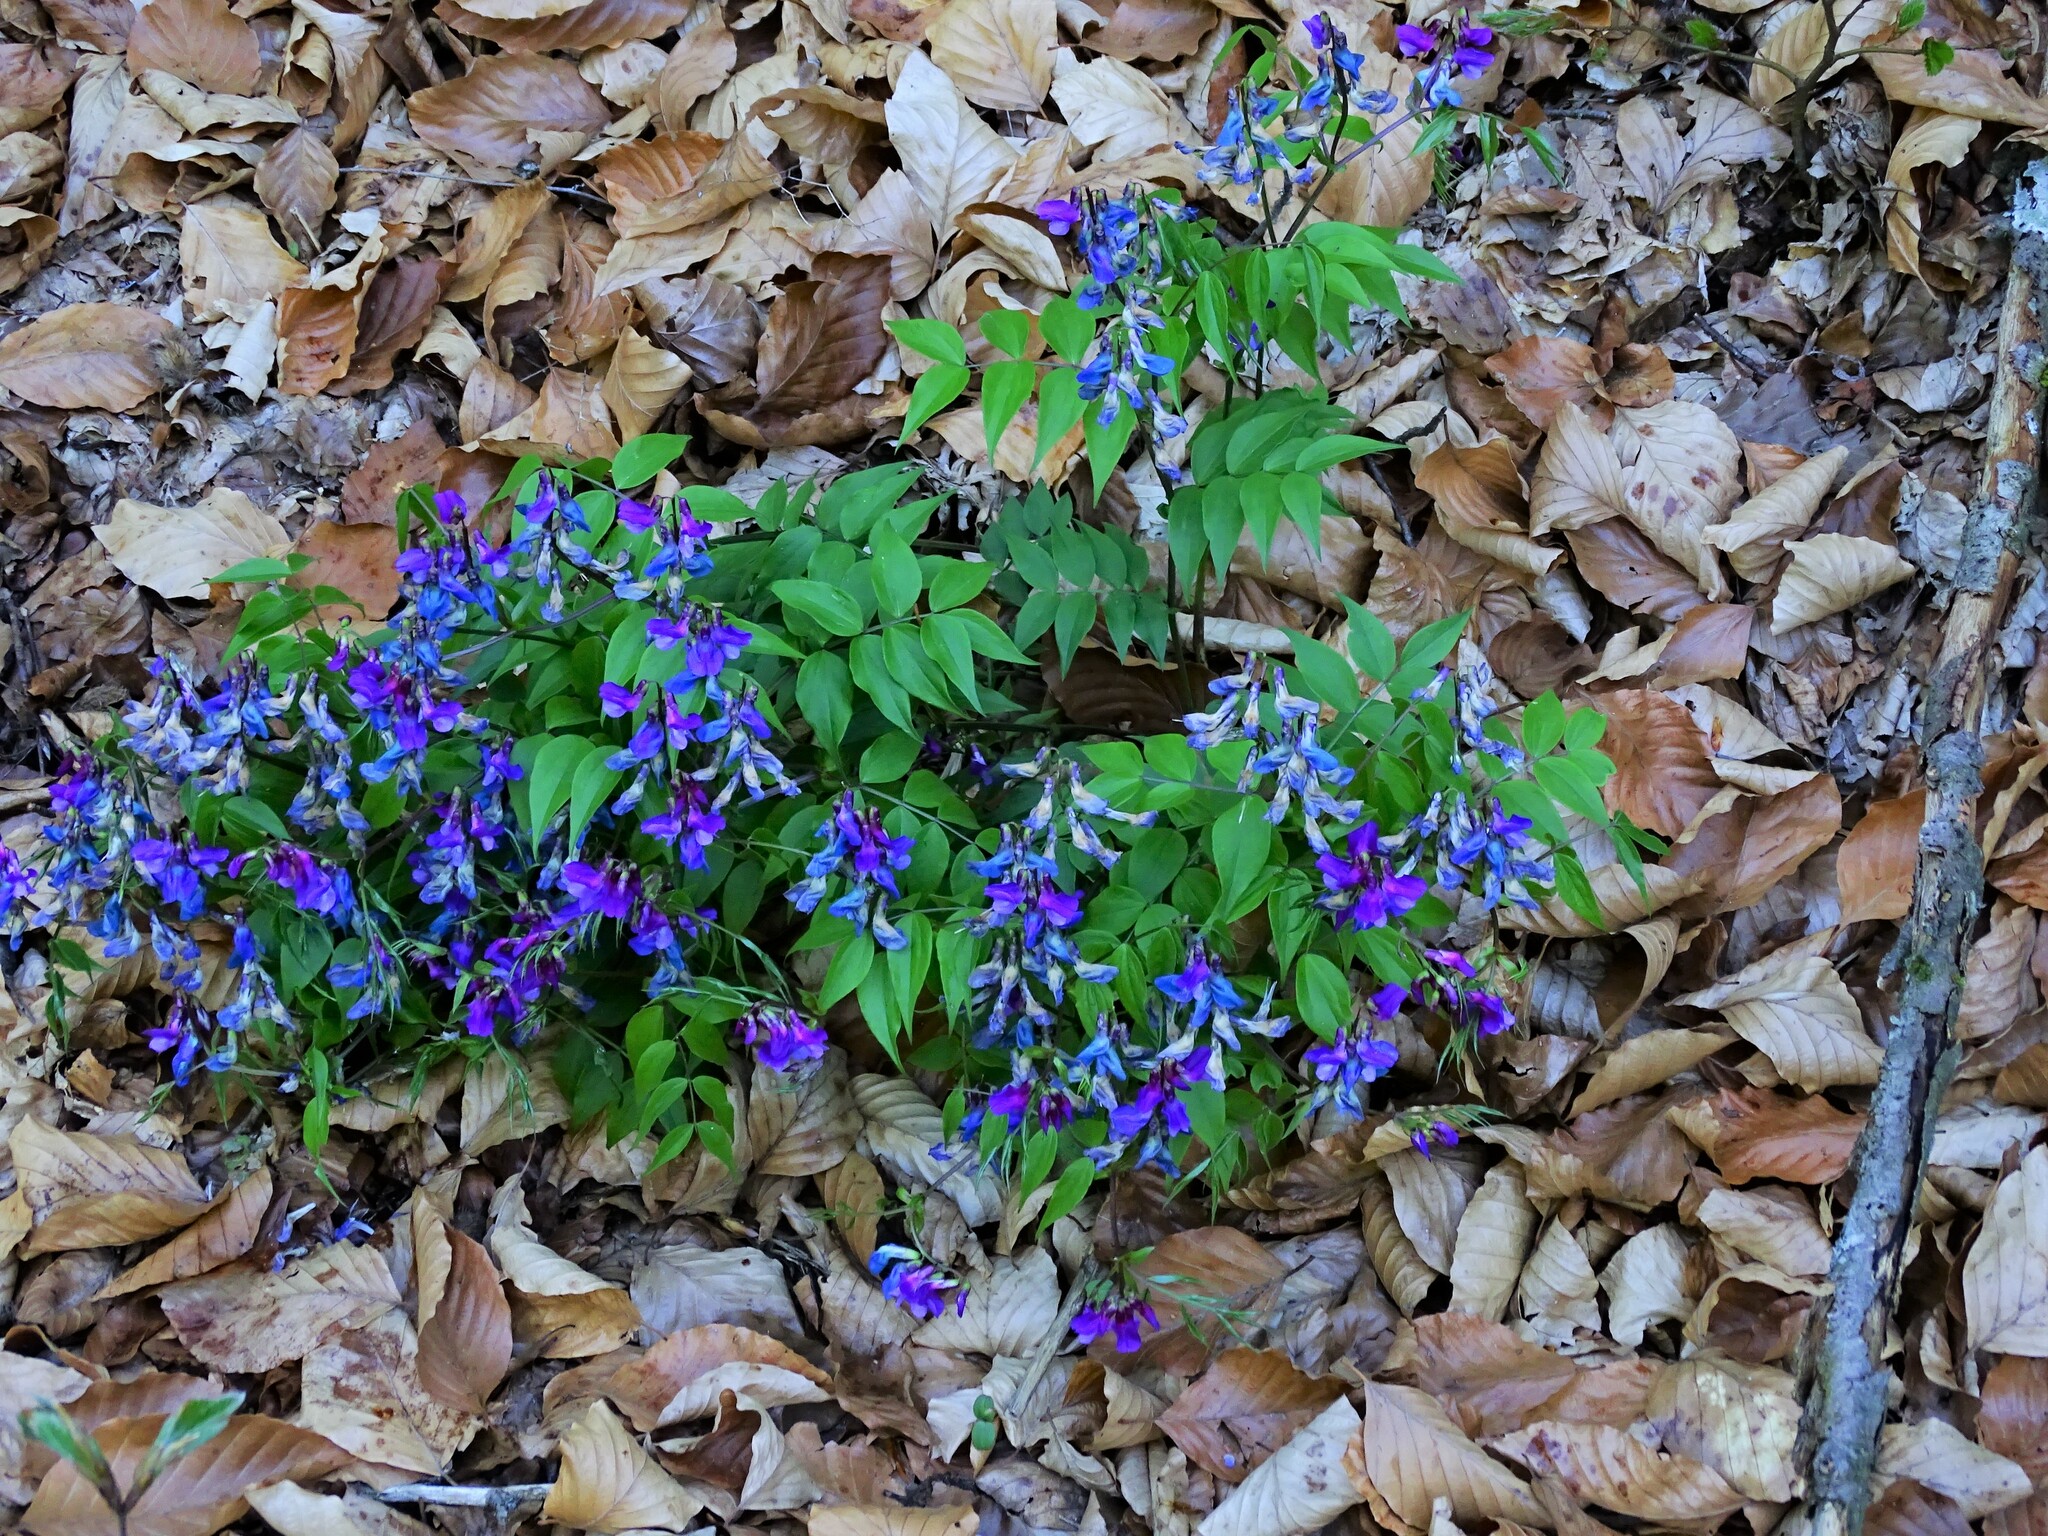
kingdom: Plantae
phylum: Tracheophyta
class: Magnoliopsida
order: Fabales
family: Fabaceae
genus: Lathyrus
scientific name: Lathyrus vernus
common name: Spring pea
